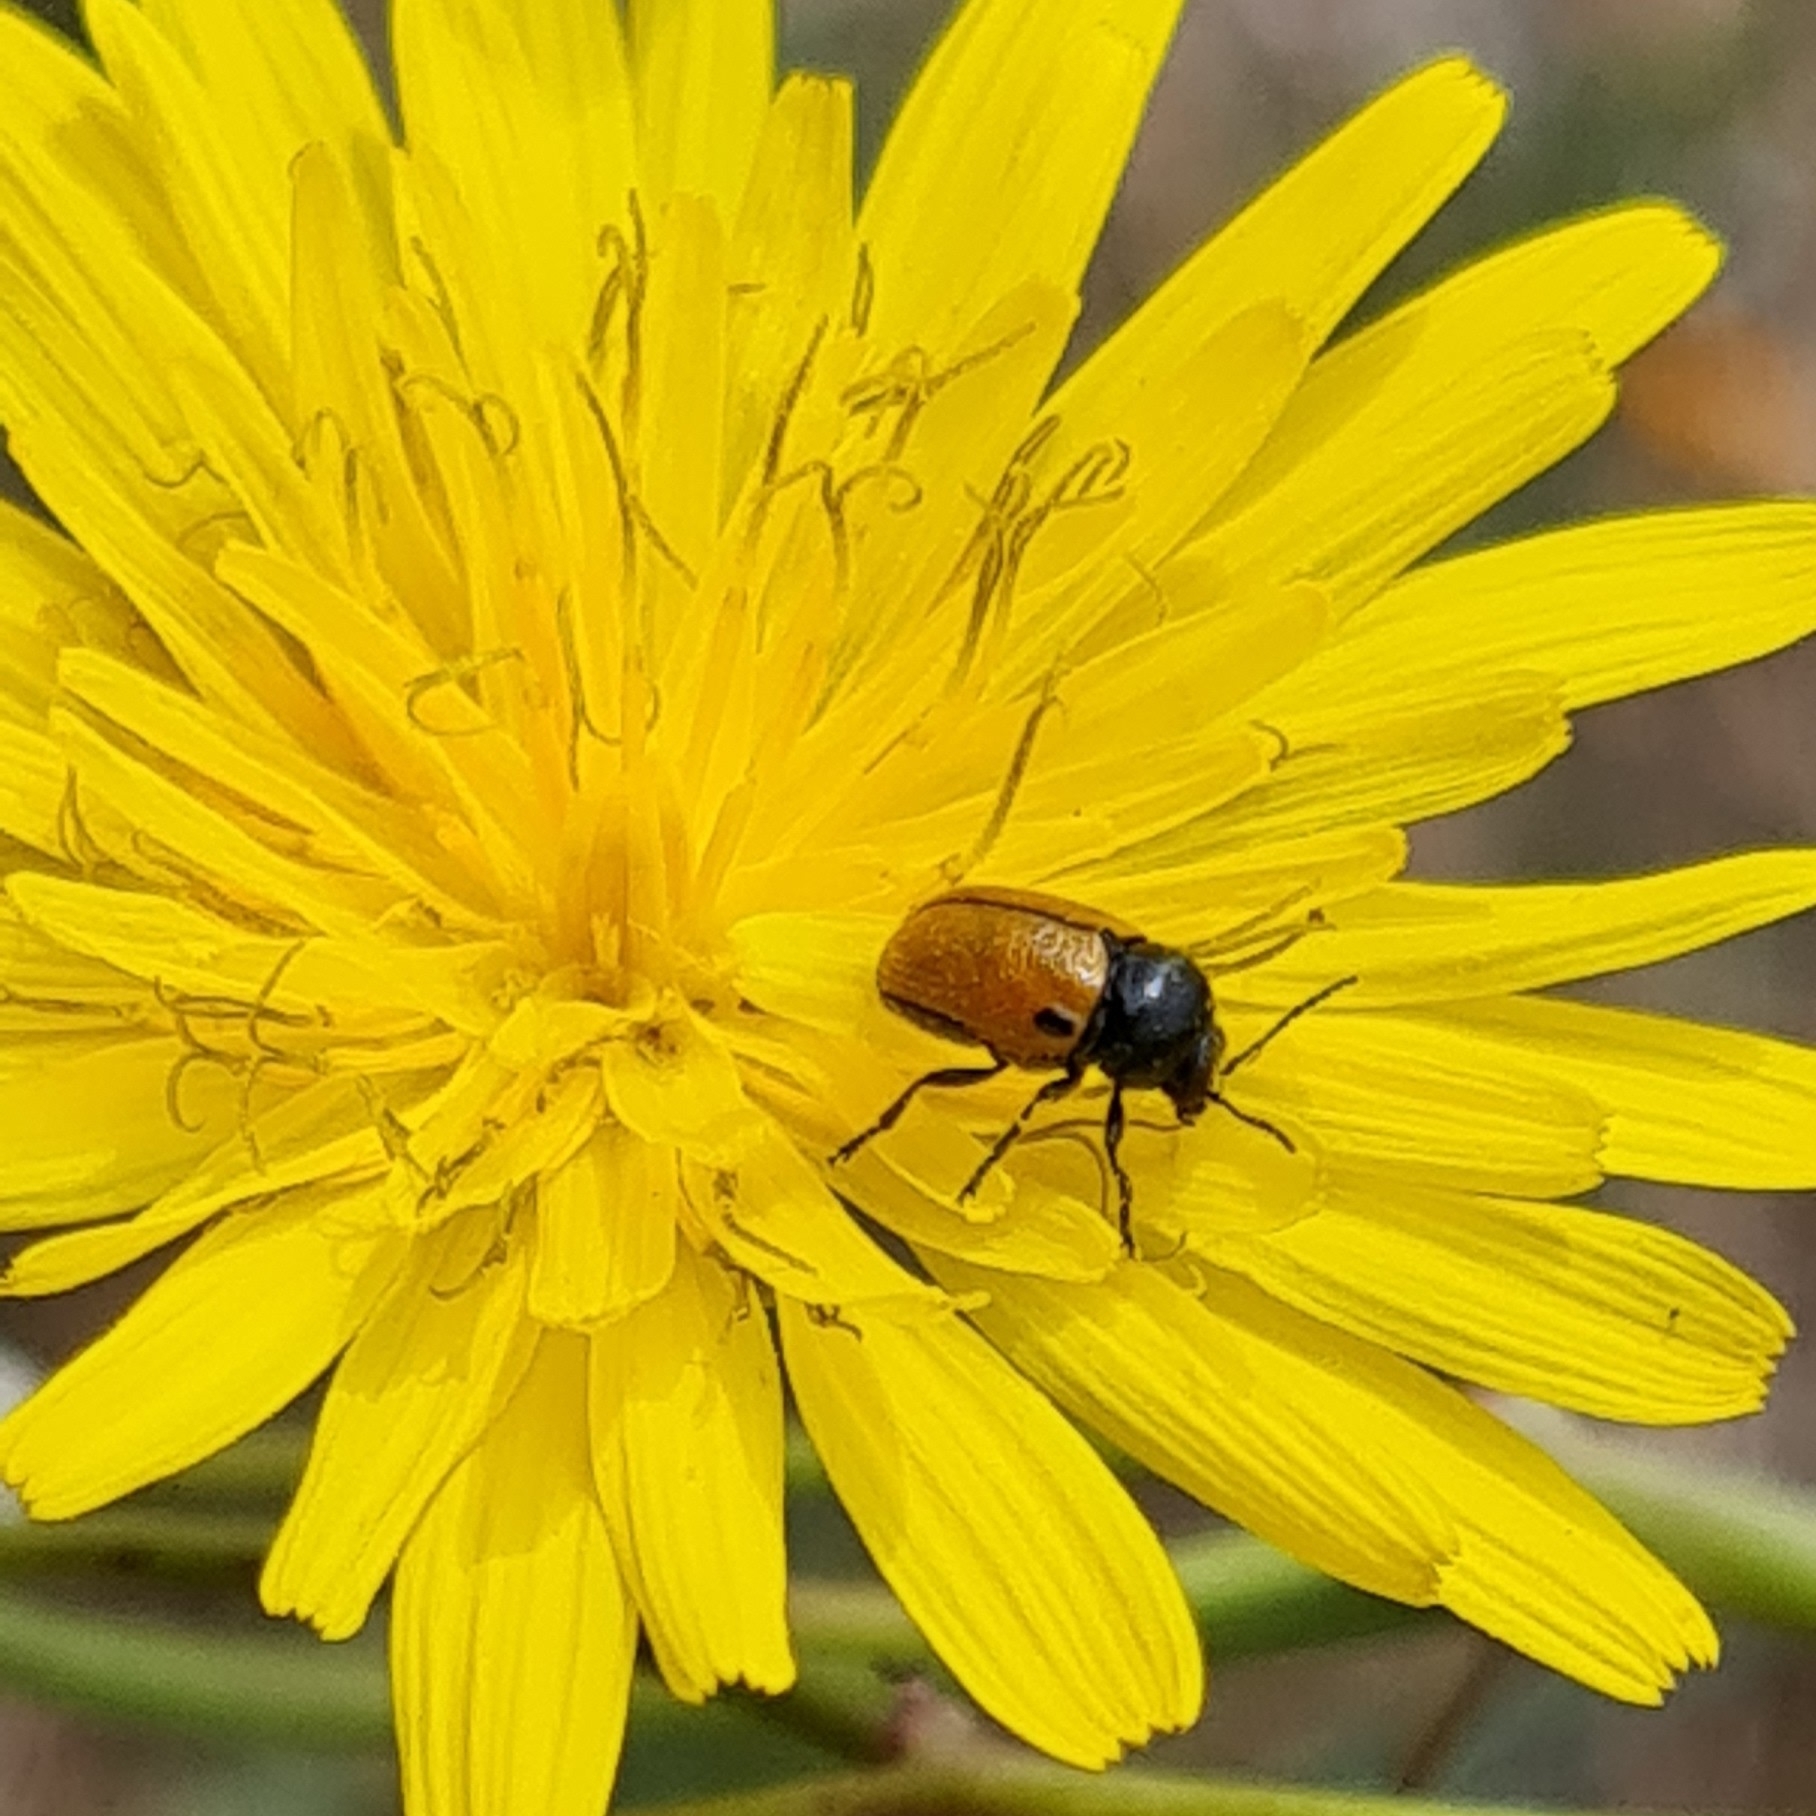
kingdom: Animalia
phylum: Arthropoda
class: Insecta
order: Coleoptera
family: Chrysomelidae
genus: Cryptocephalus
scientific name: Cryptocephalus rugicollis
